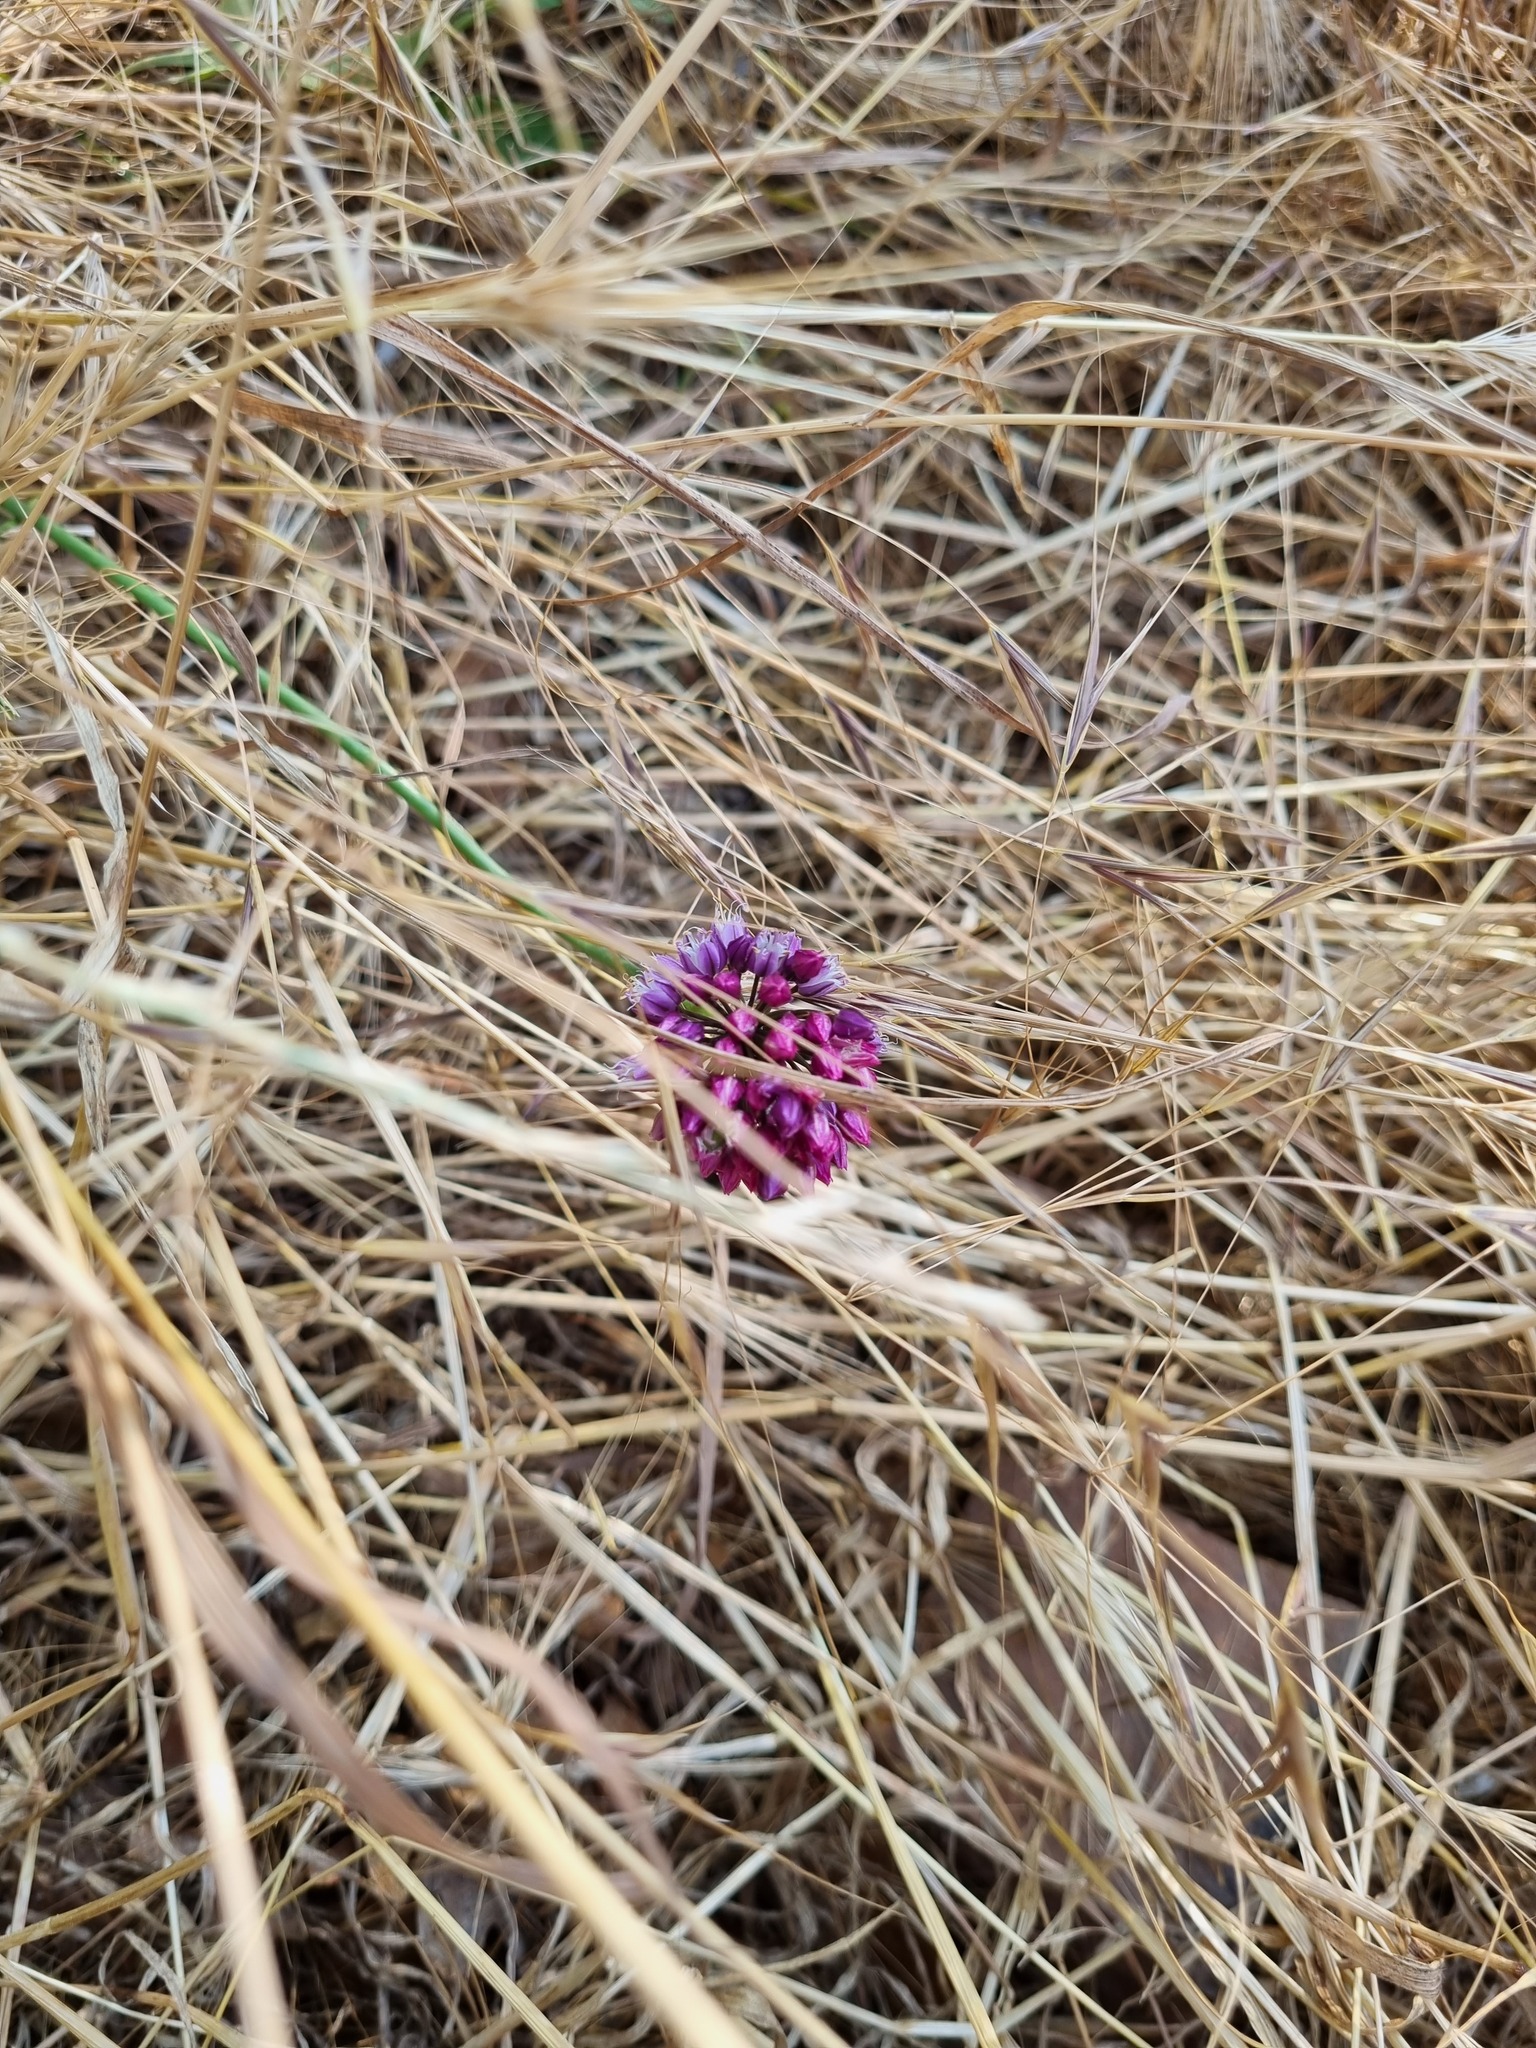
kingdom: Plantae
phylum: Tracheophyta
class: Liliopsida
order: Asparagales
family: Amaryllidaceae
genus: Allium
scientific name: Allium rotundum
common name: Sand leek
